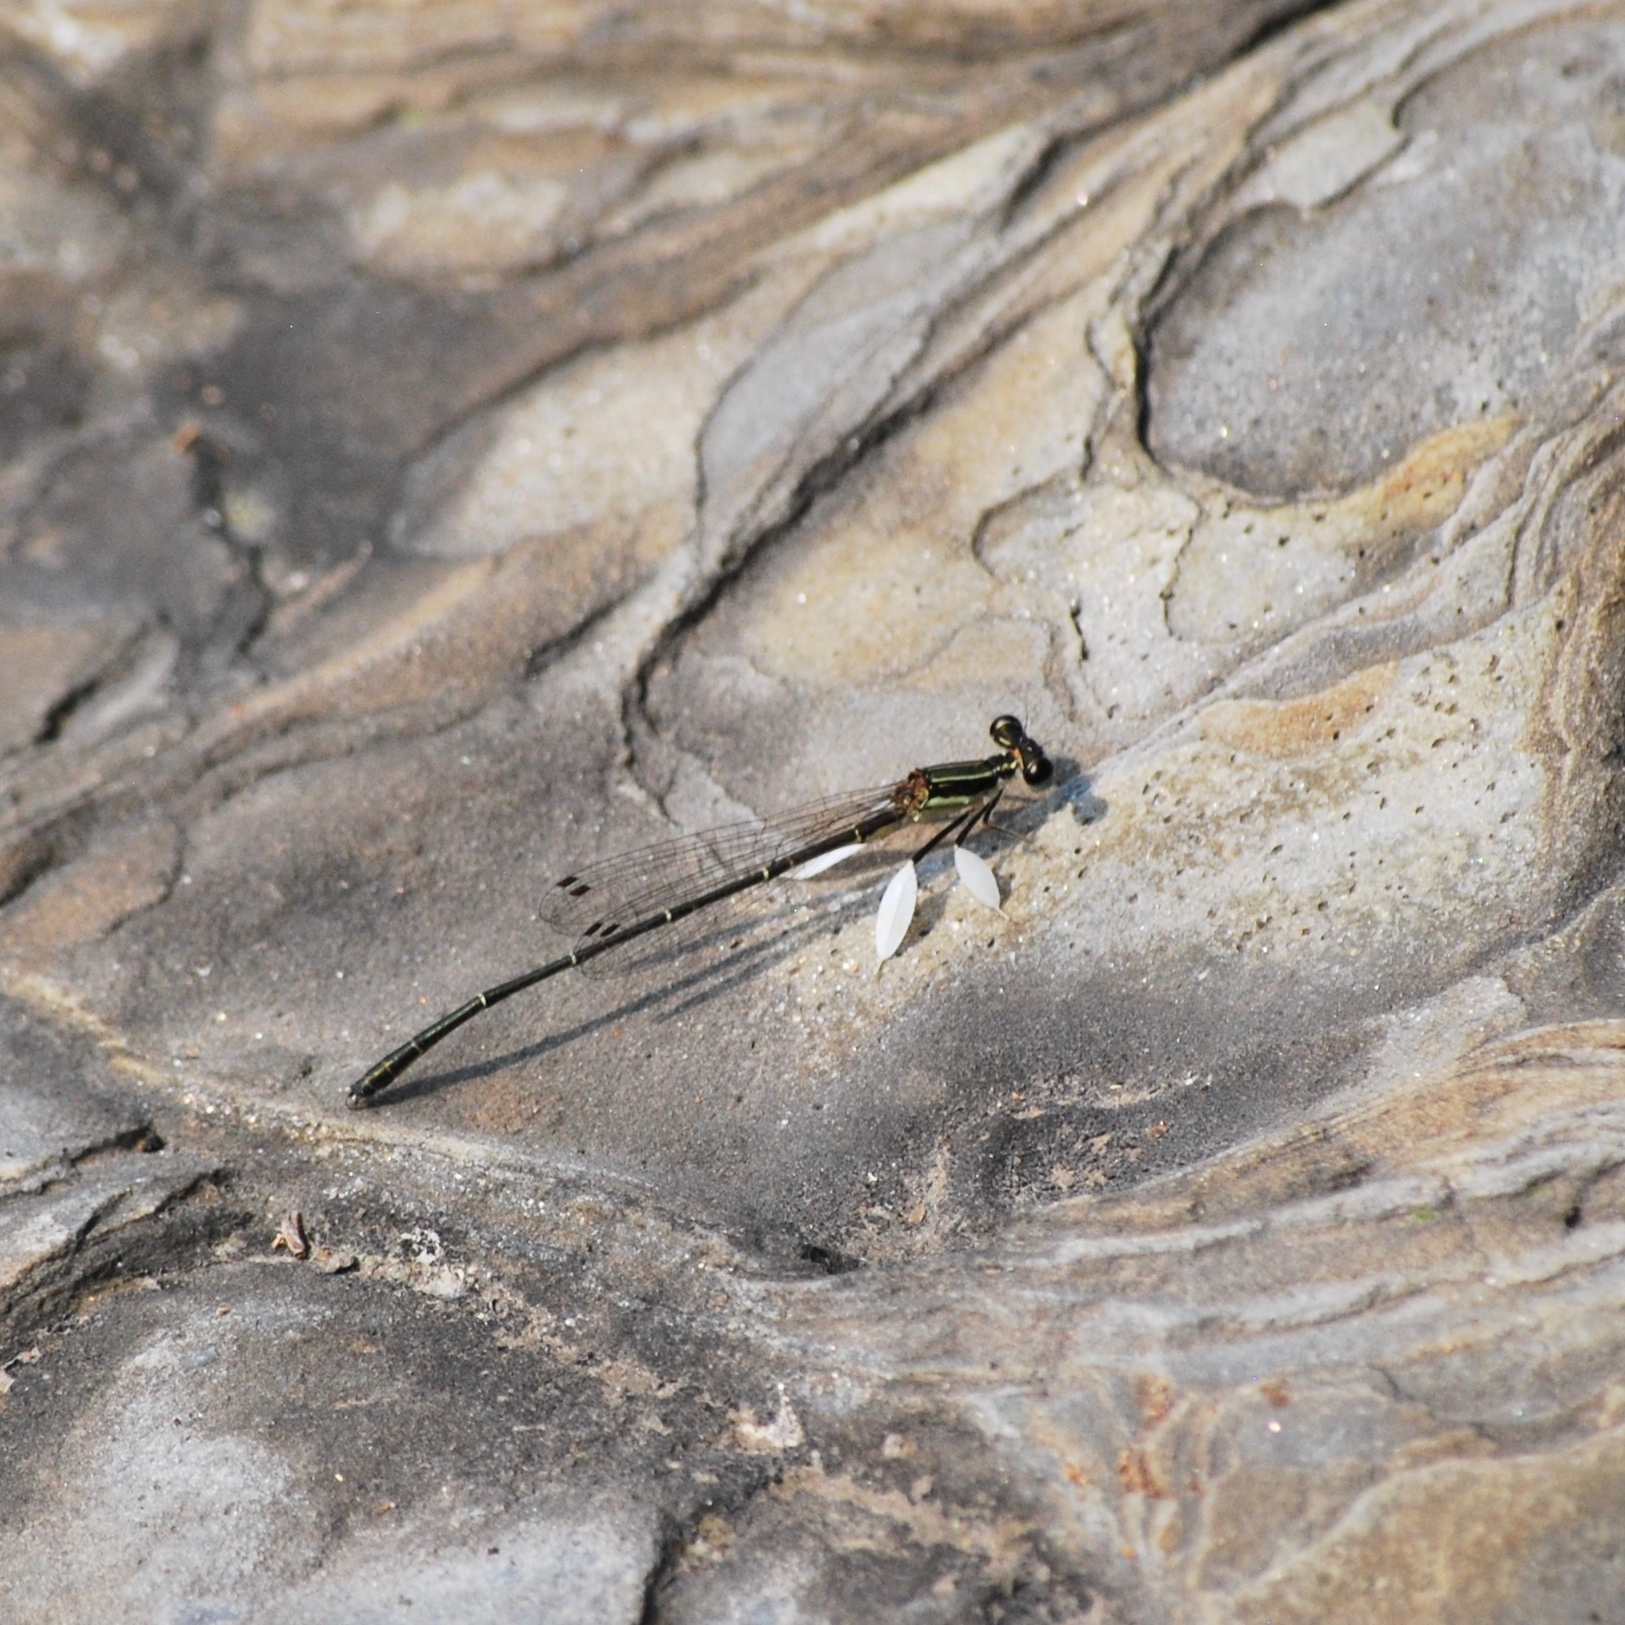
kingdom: Animalia
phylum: Arthropoda
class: Insecta
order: Odonata
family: Platycnemididae
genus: Platycnemis
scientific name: Platycnemis phyllopoda
